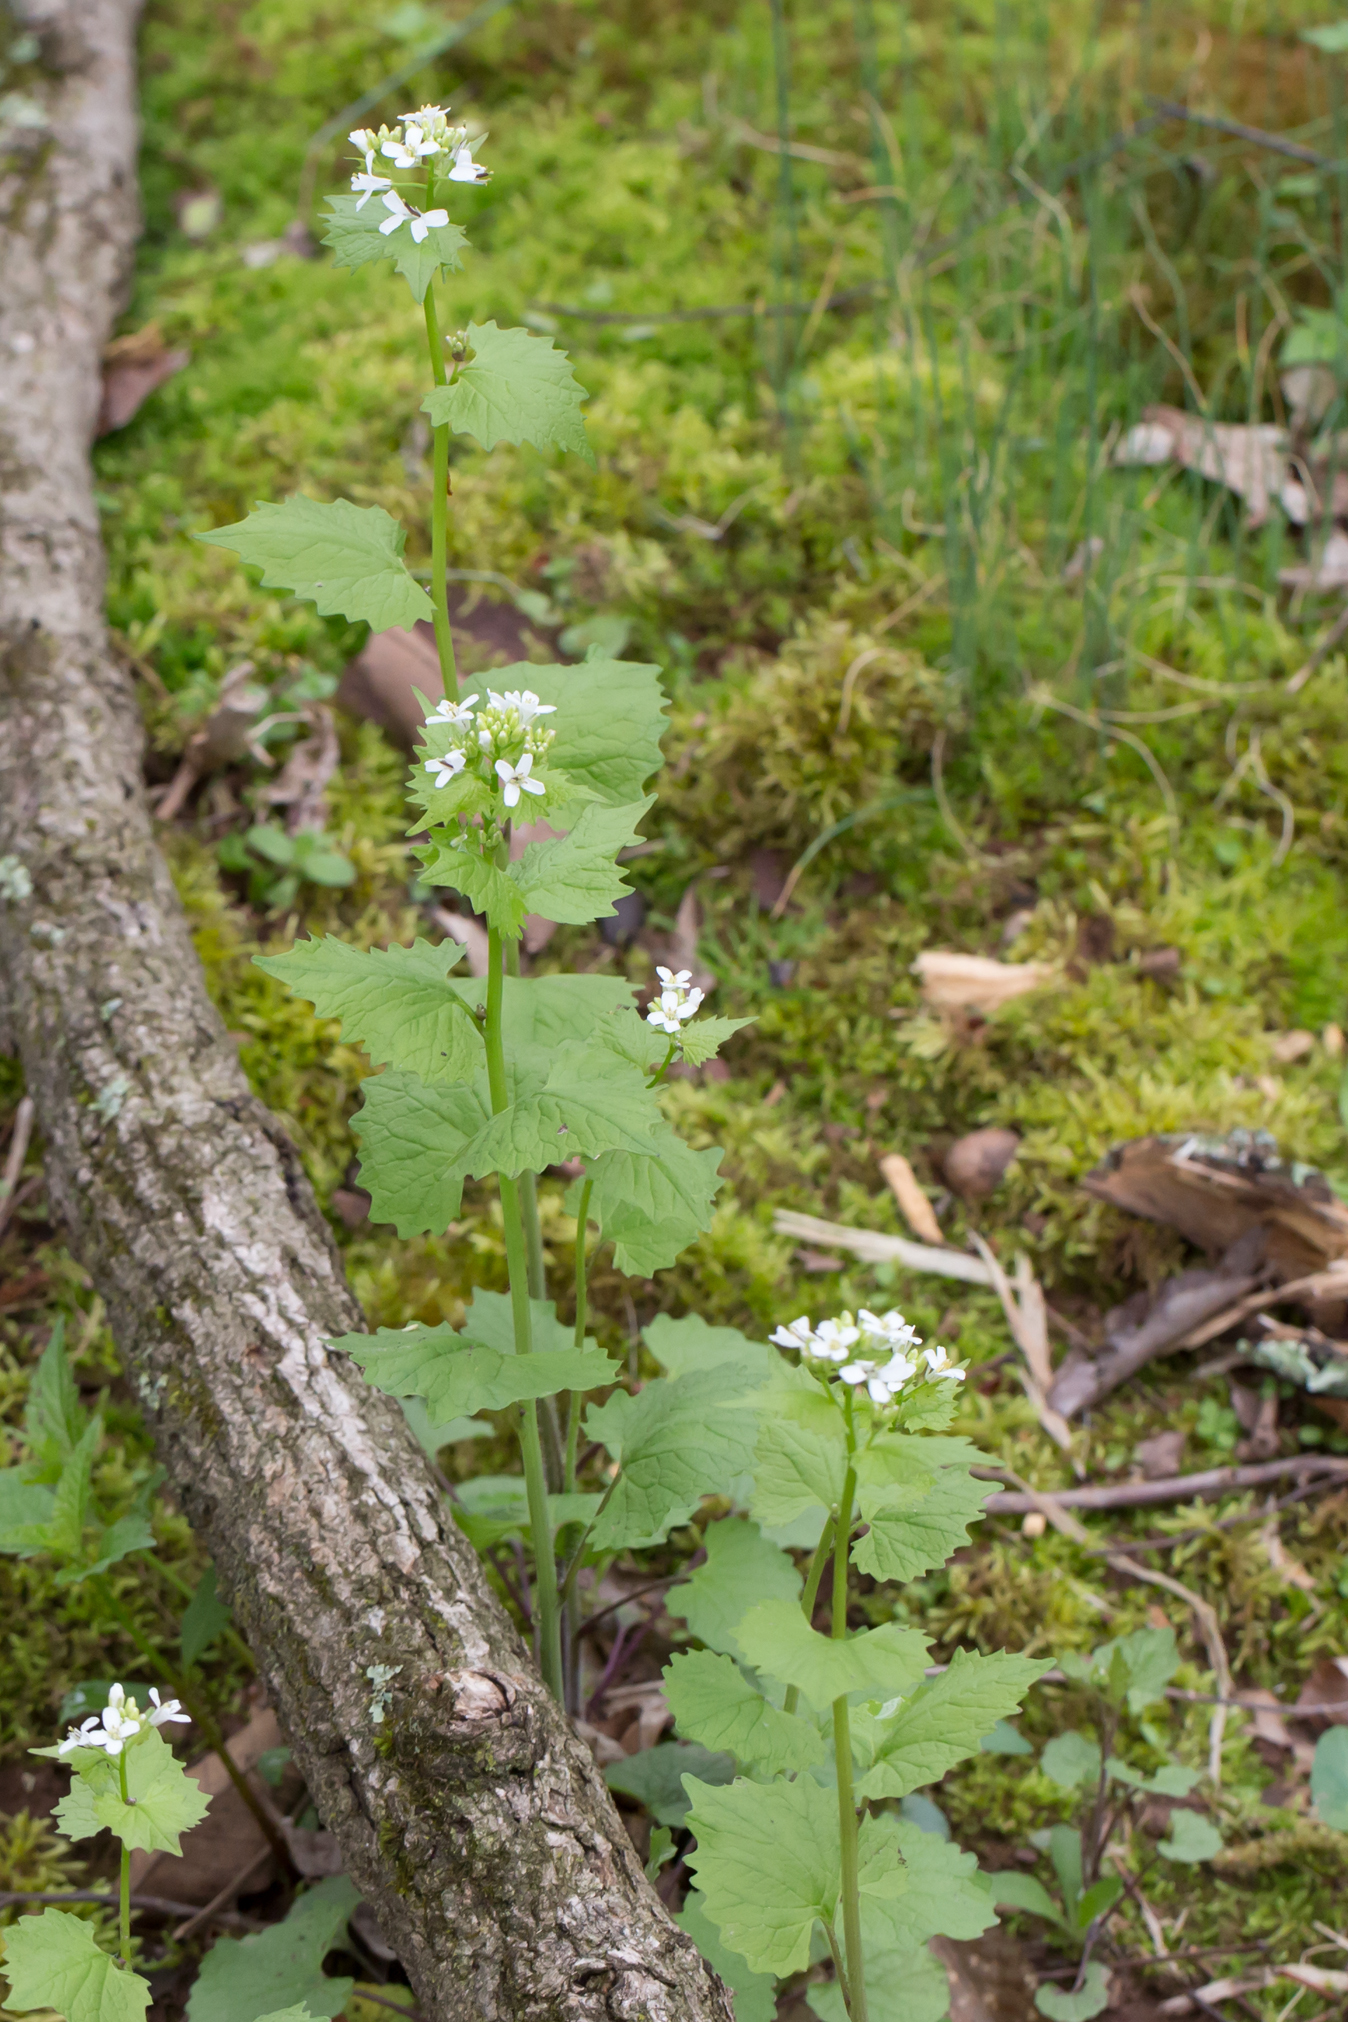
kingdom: Plantae
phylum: Tracheophyta
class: Magnoliopsida
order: Brassicales
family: Brassicaceae
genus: Alliaria
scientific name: Alliaria petiolata
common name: Garlic mustard
